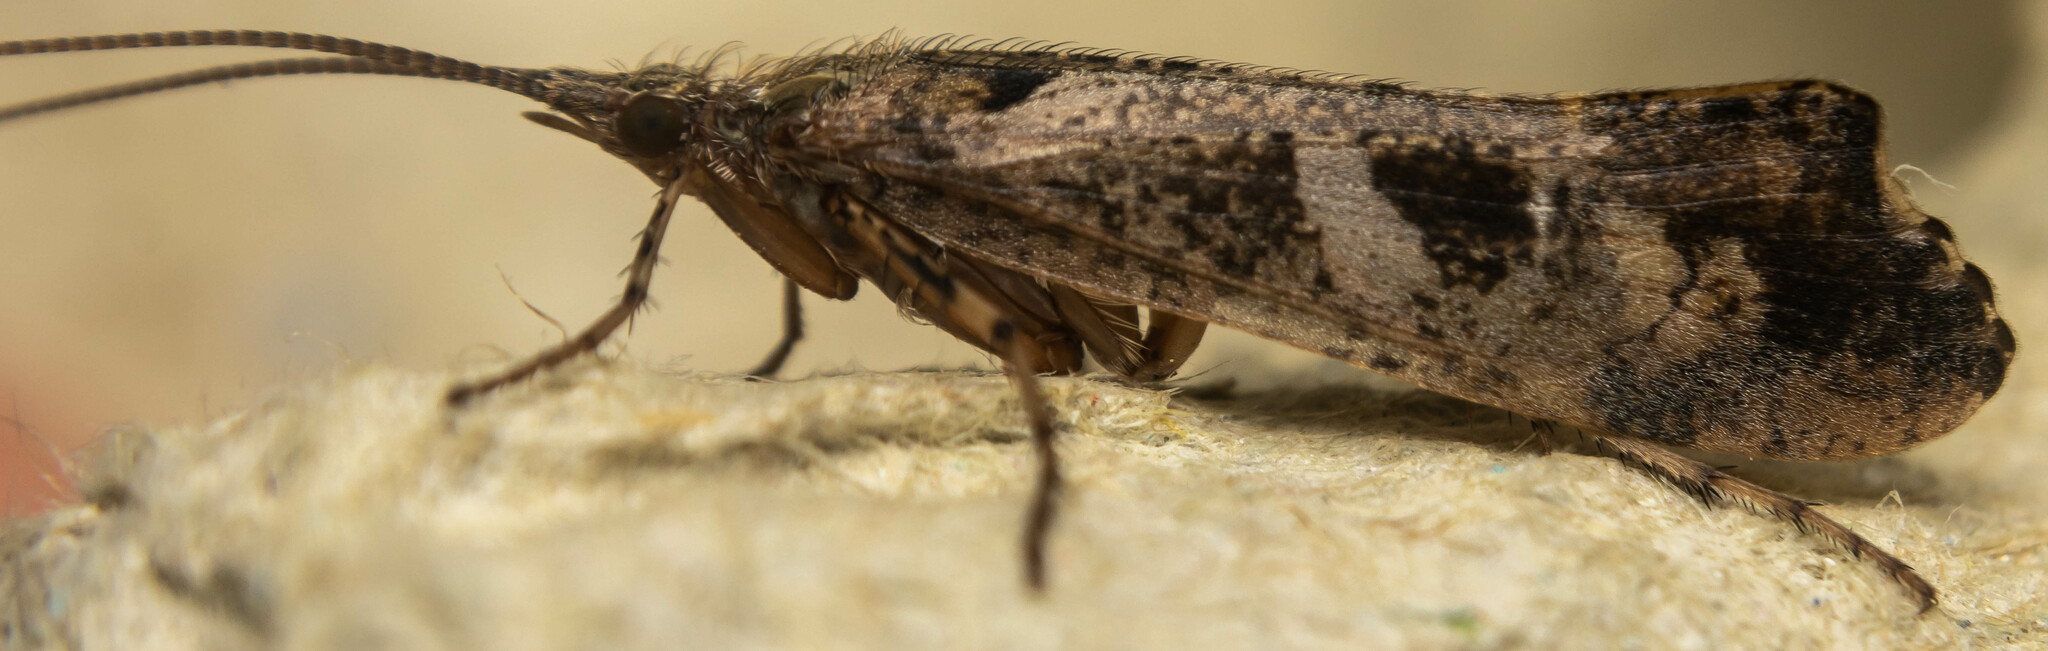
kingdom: Animalia
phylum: Arthropoda
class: Insecta
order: Trichoptera
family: Limnephilidae
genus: Glyphotaelius
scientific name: Glyphotaelius pellucidus
